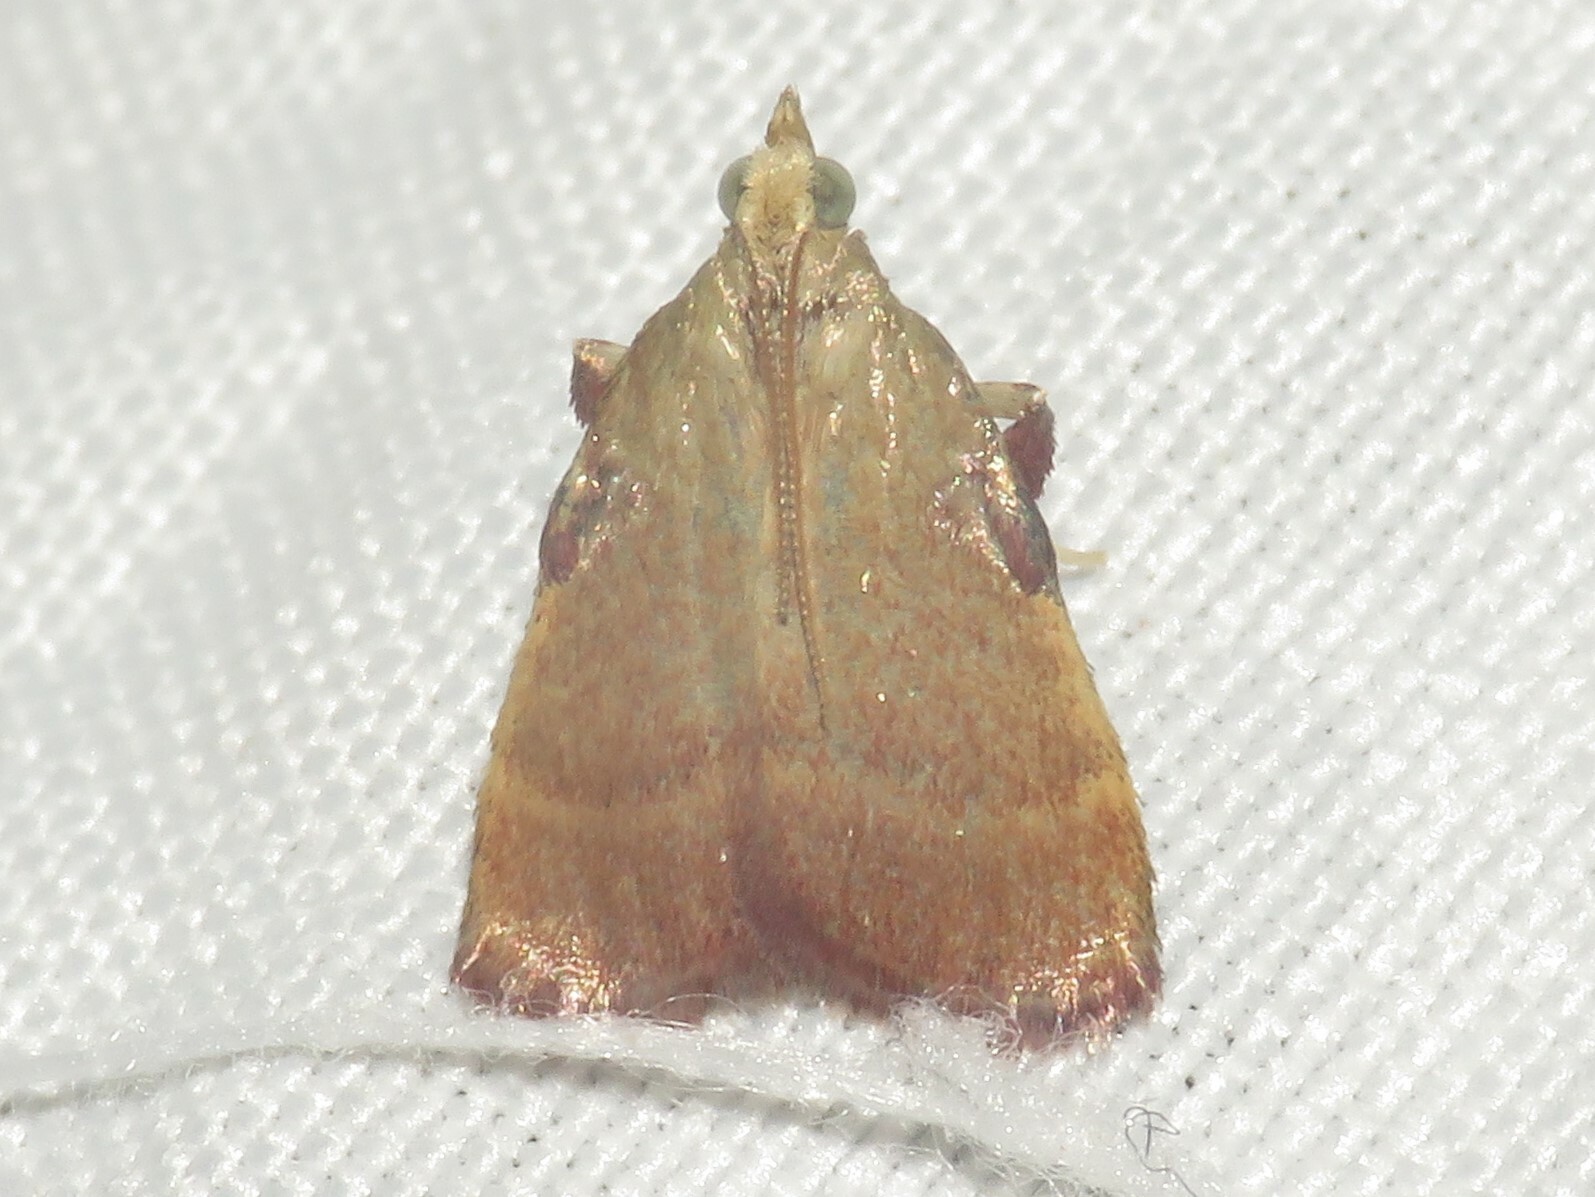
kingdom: Animalia
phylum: Arthropoda
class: Insecta
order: Lepidoptera
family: Pyralidae
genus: Condylolomia
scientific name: Condylolomia participialis
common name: Drab condylolomia moth
